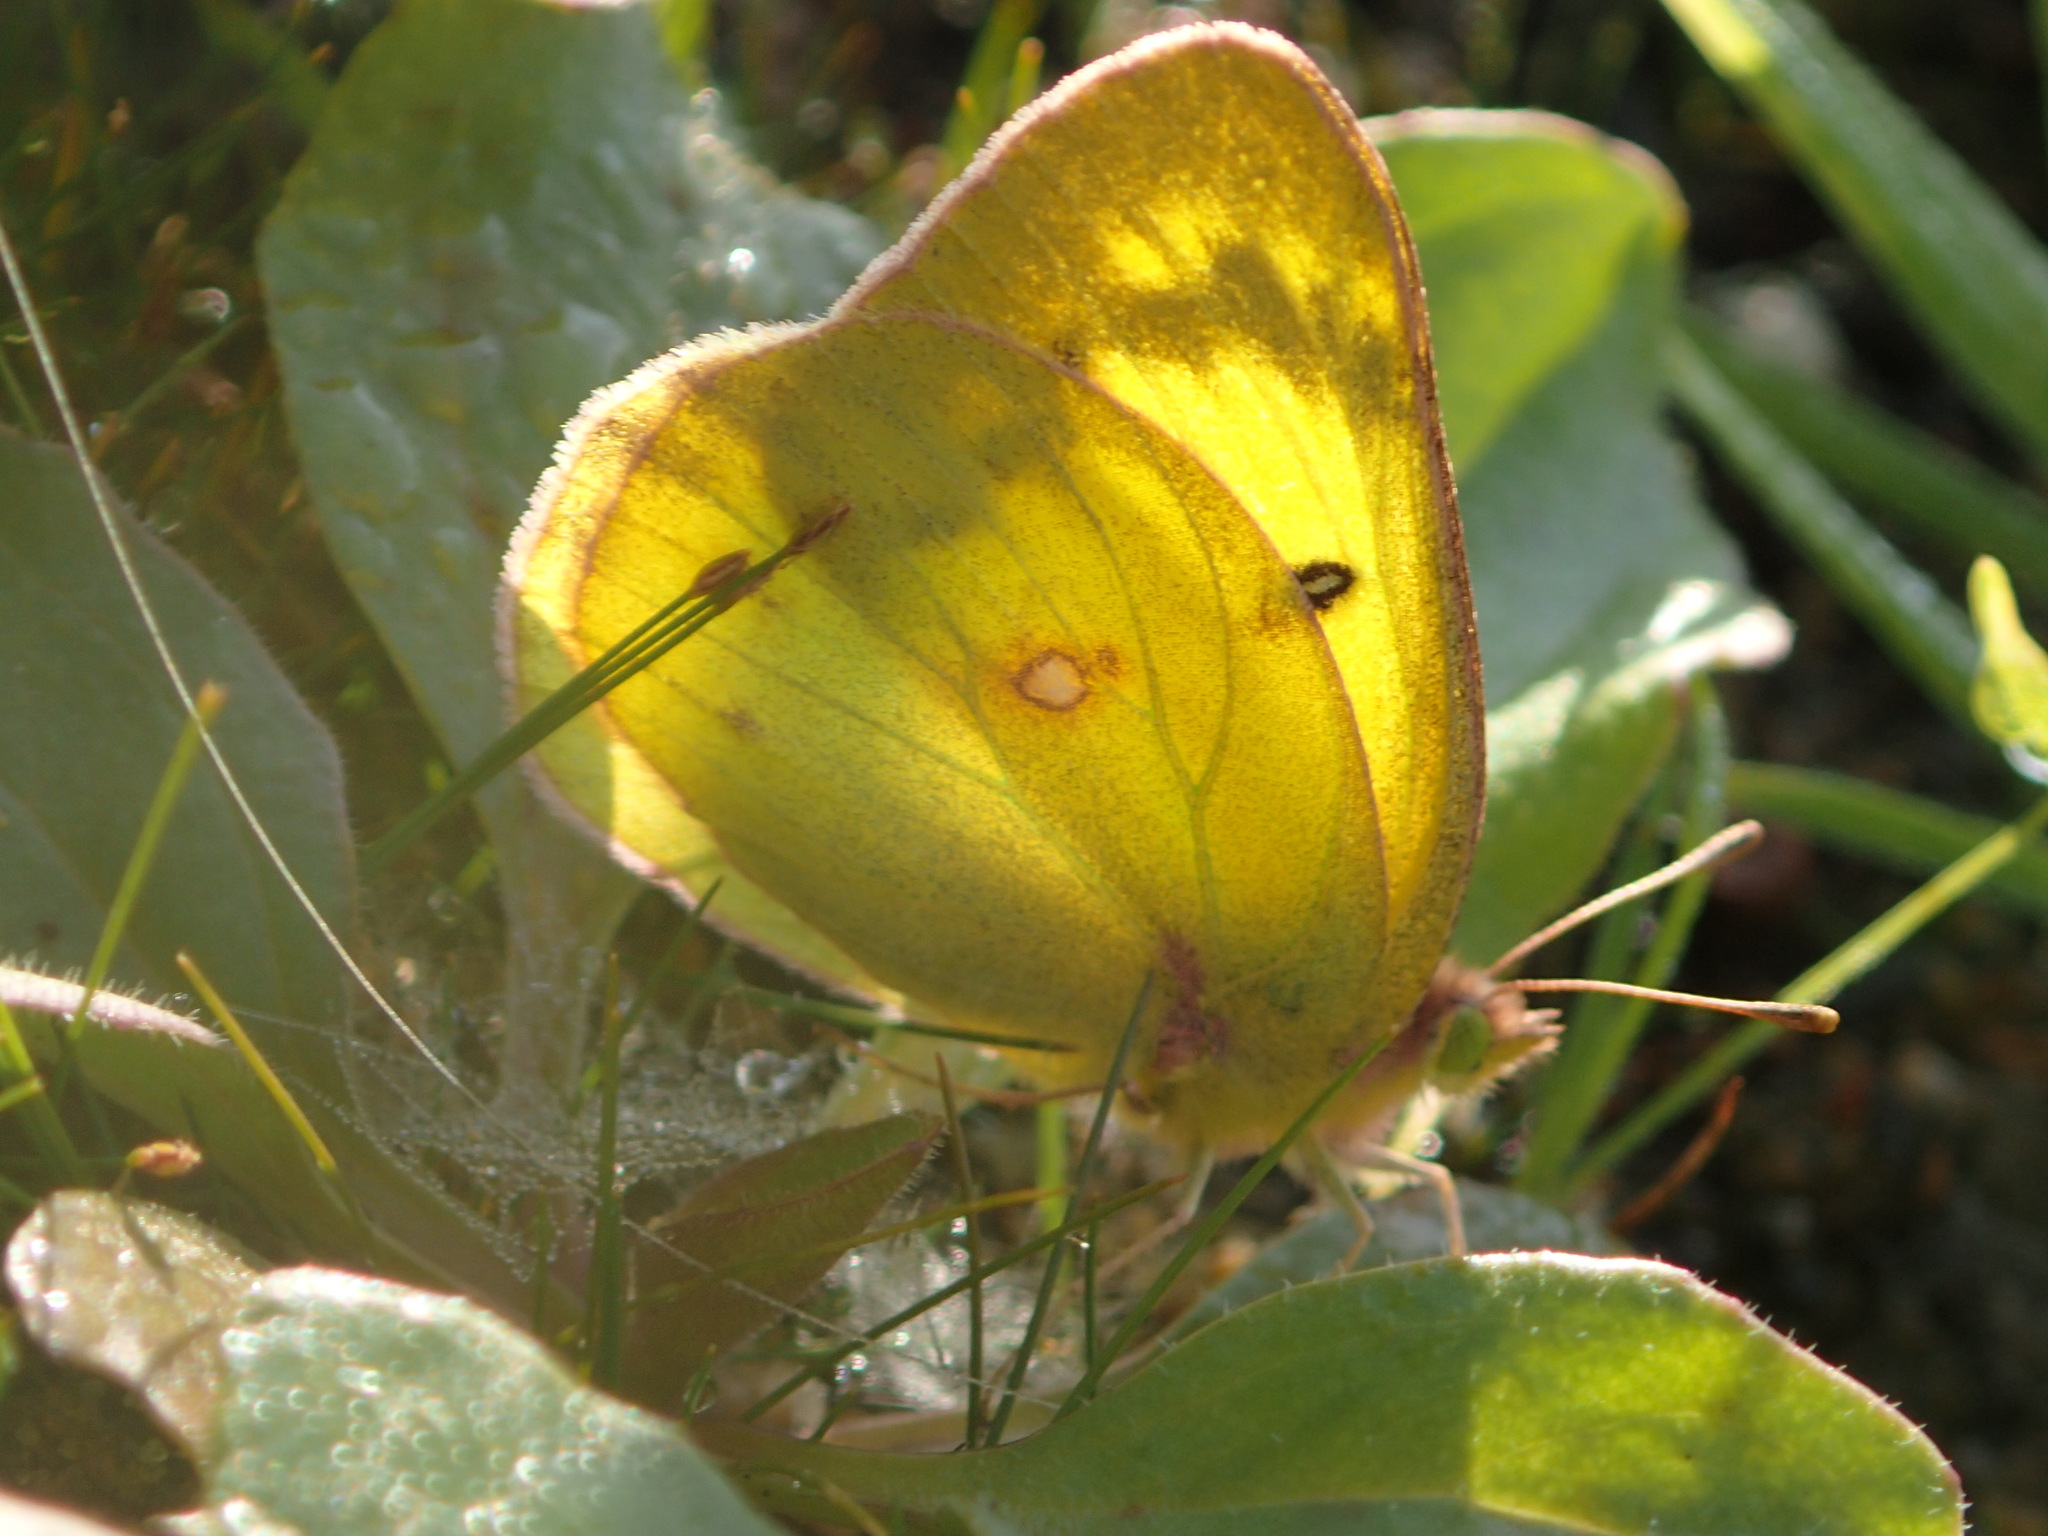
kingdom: Animalia
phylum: Arthropoda
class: Insecta
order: Lepidoptera
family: Pieridae
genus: Colias
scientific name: Colias philodice
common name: Clouded sulphur
